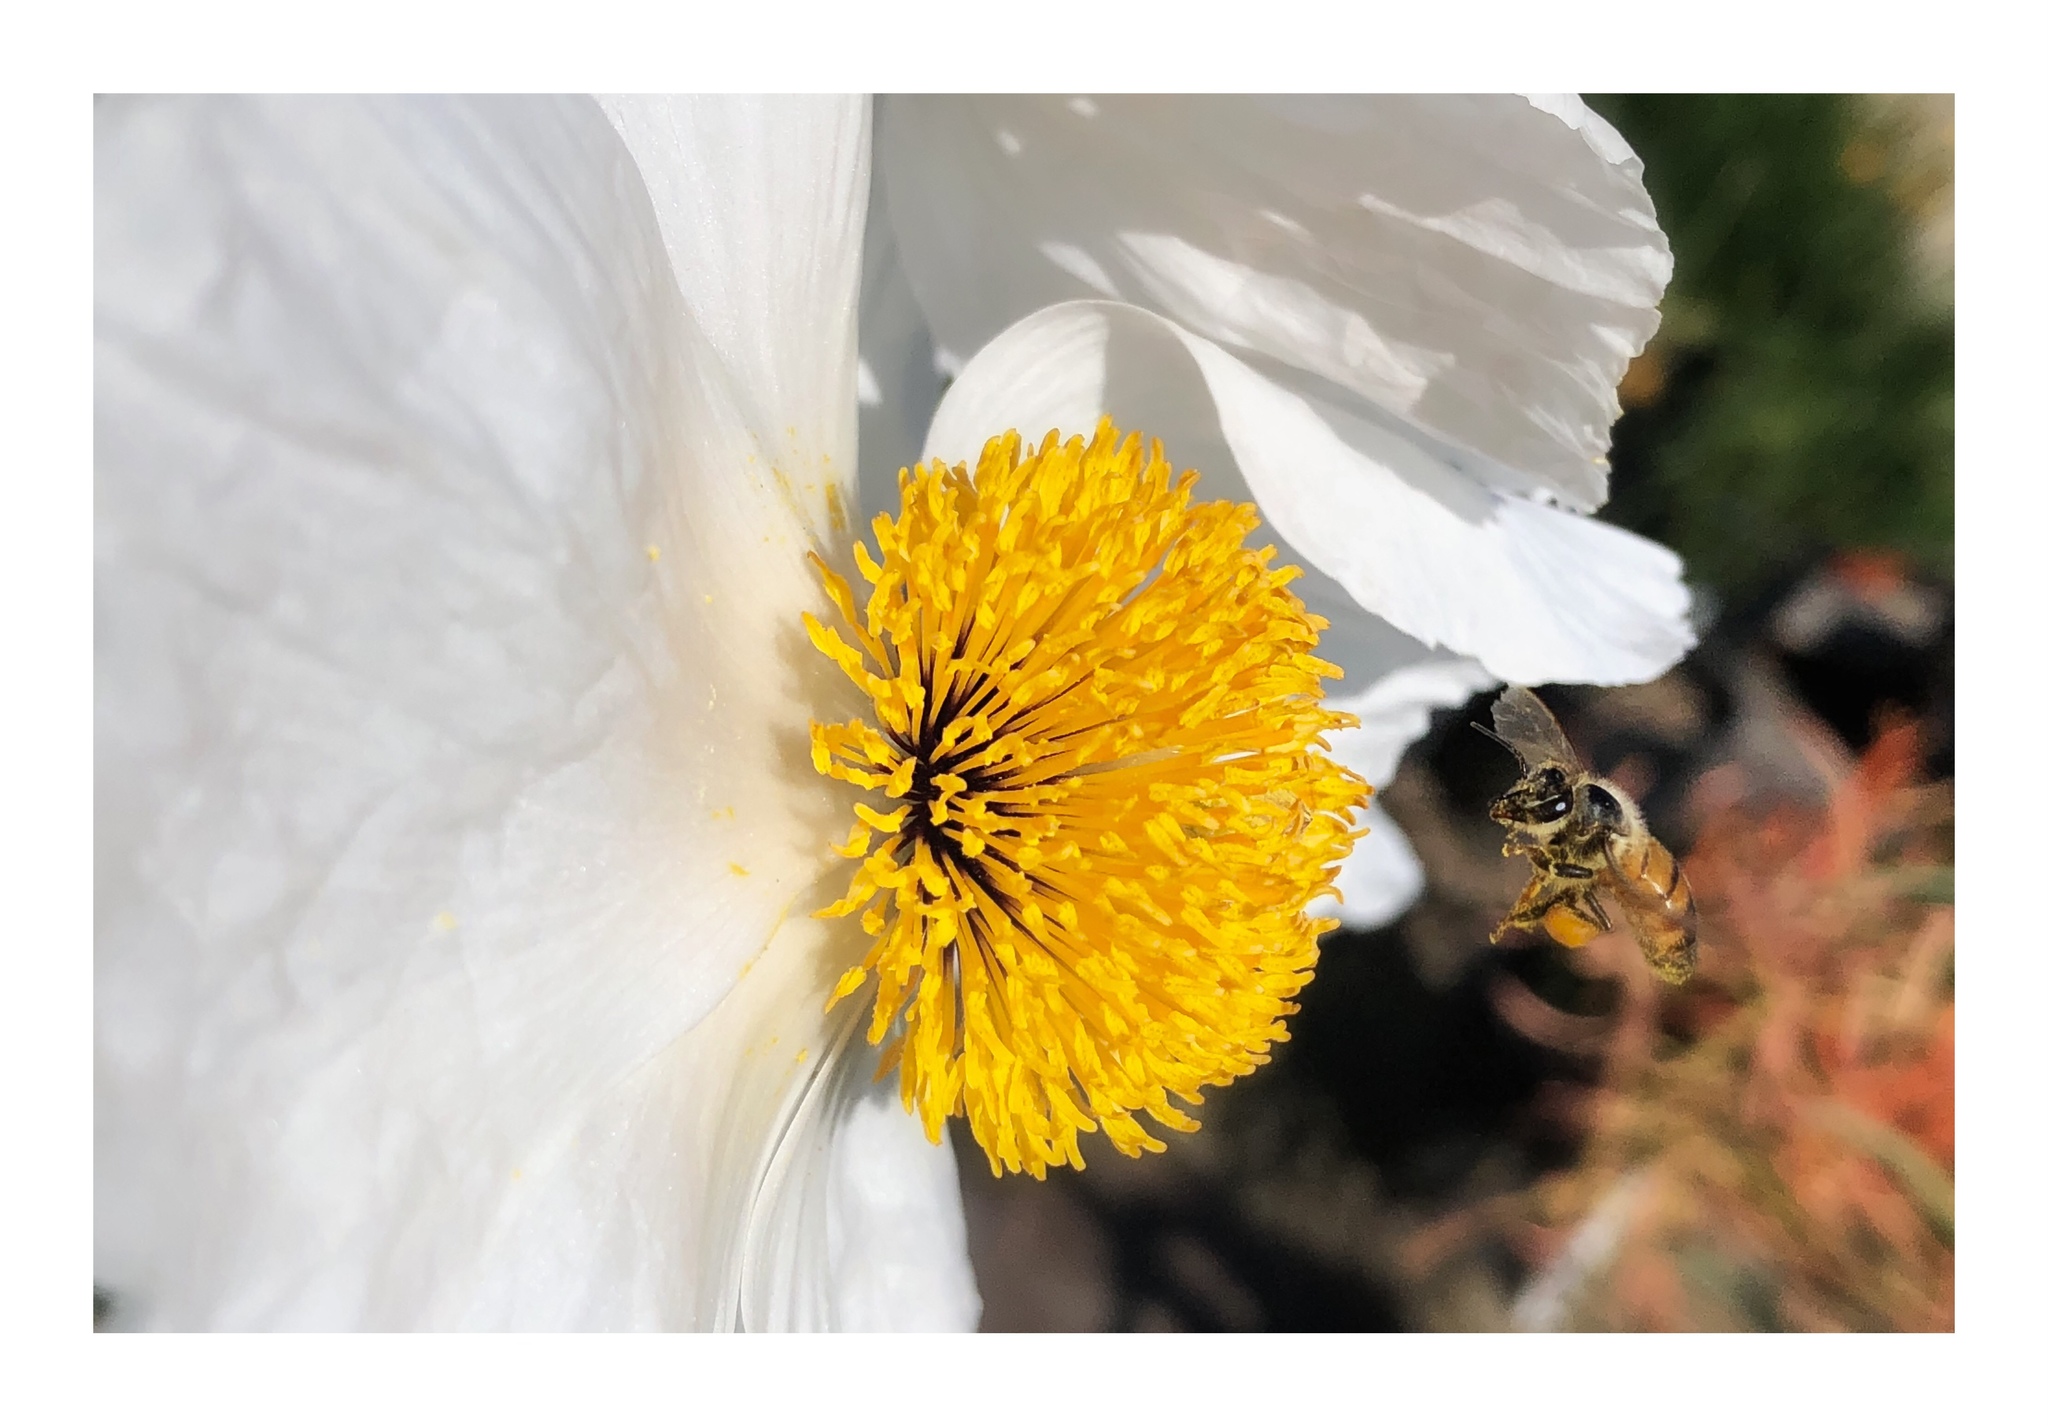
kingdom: Animalia
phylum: Arthropoda
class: Insecta
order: Hymenoptera
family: Apidae
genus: Apis
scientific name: Apis mellifera
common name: Honey bee
